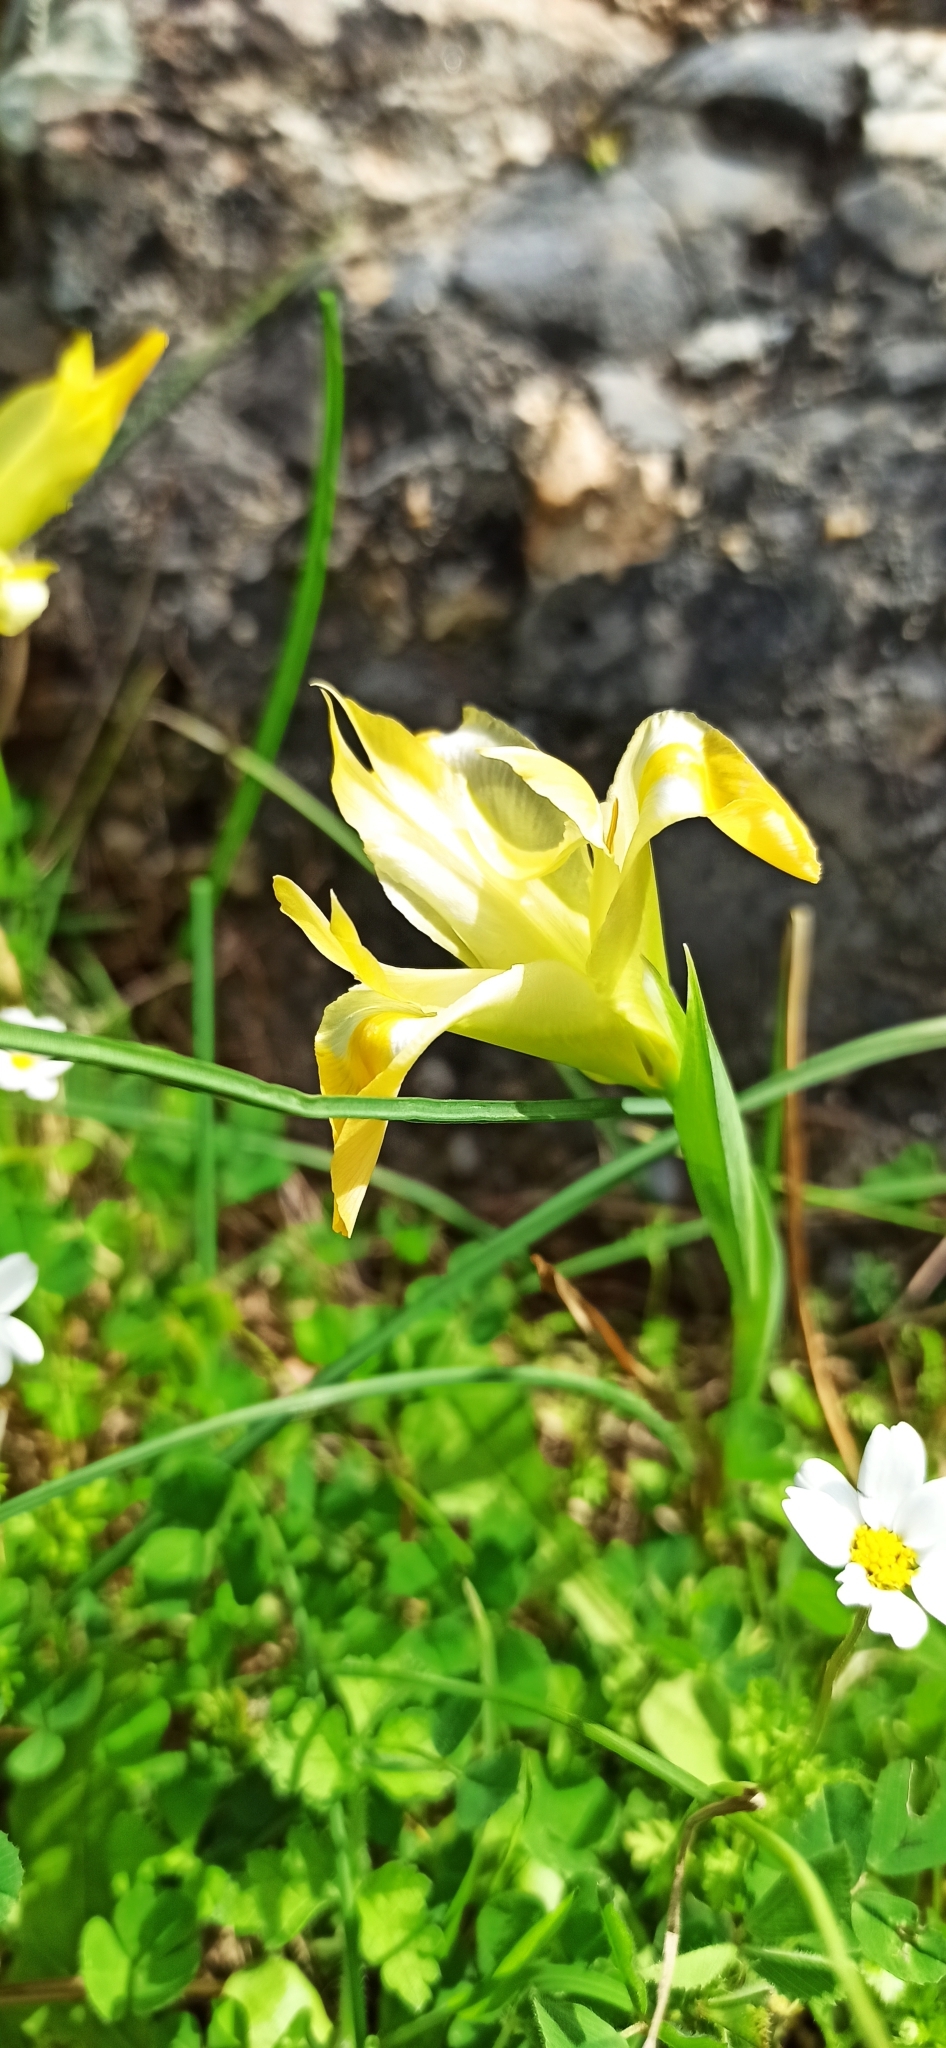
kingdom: Plantae
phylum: Tracheophyta
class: Liliopsida
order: Asparagales
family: Iridaceae
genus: Iris
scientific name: Iris tuberosa
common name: Snake's-head iris
